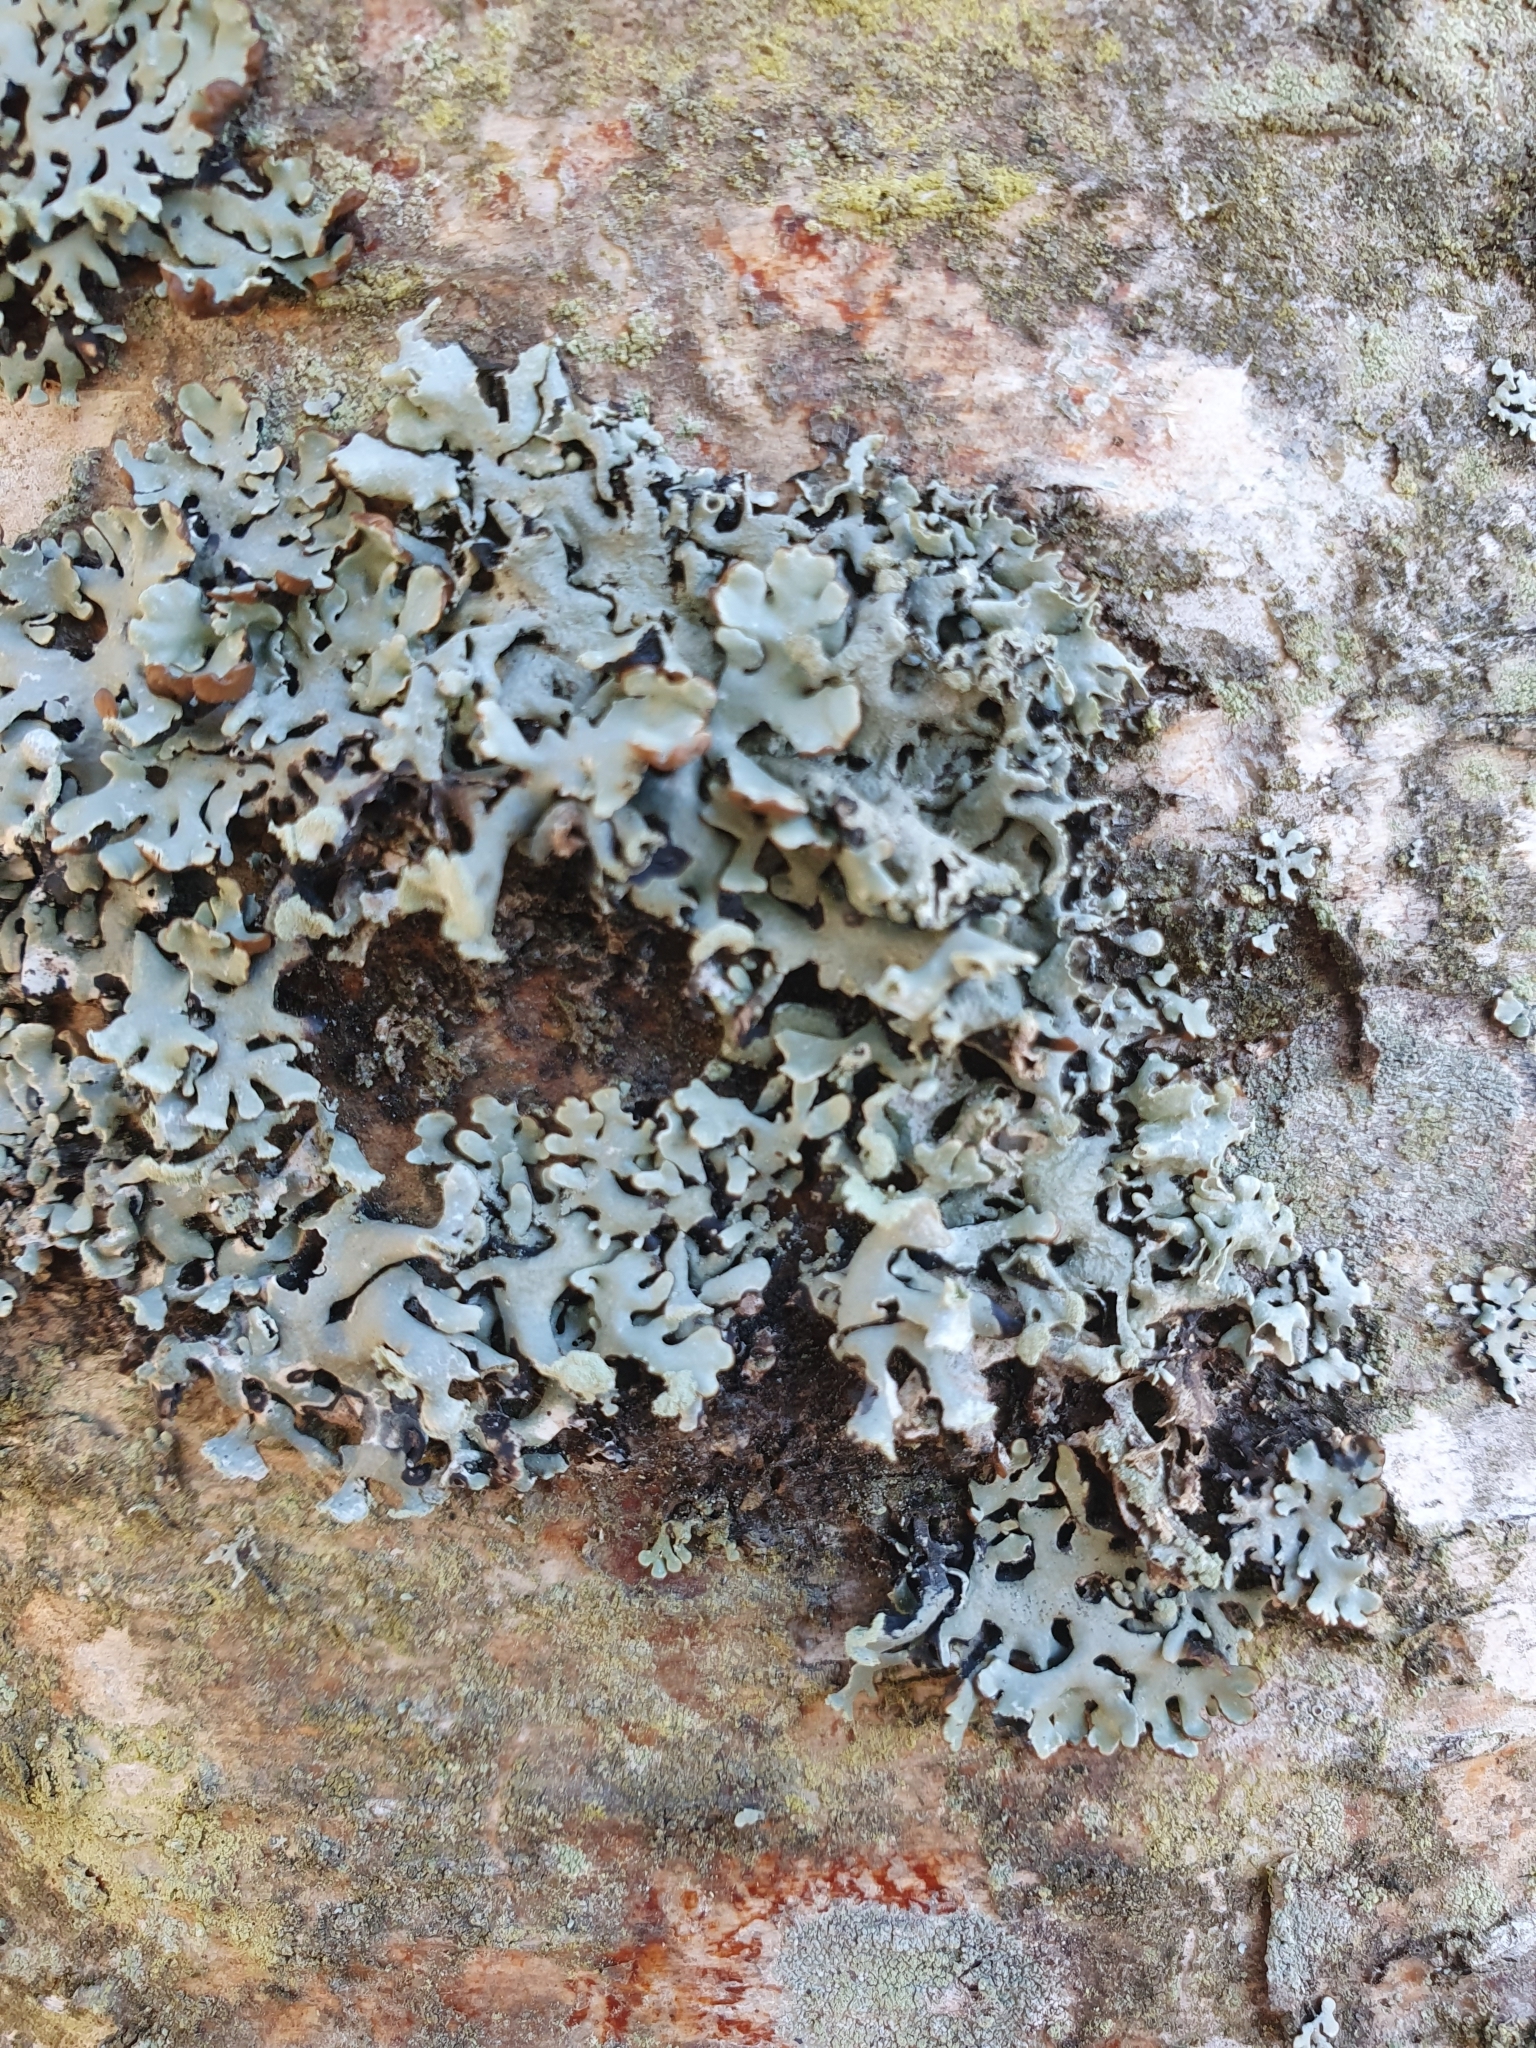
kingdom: Fungi
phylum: Ascomycota
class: Lecanoromycetes
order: Lecanorales
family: Parmeliaceae
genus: Hypogymnia
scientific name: Hypogymnia physodes
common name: Dark crottle
